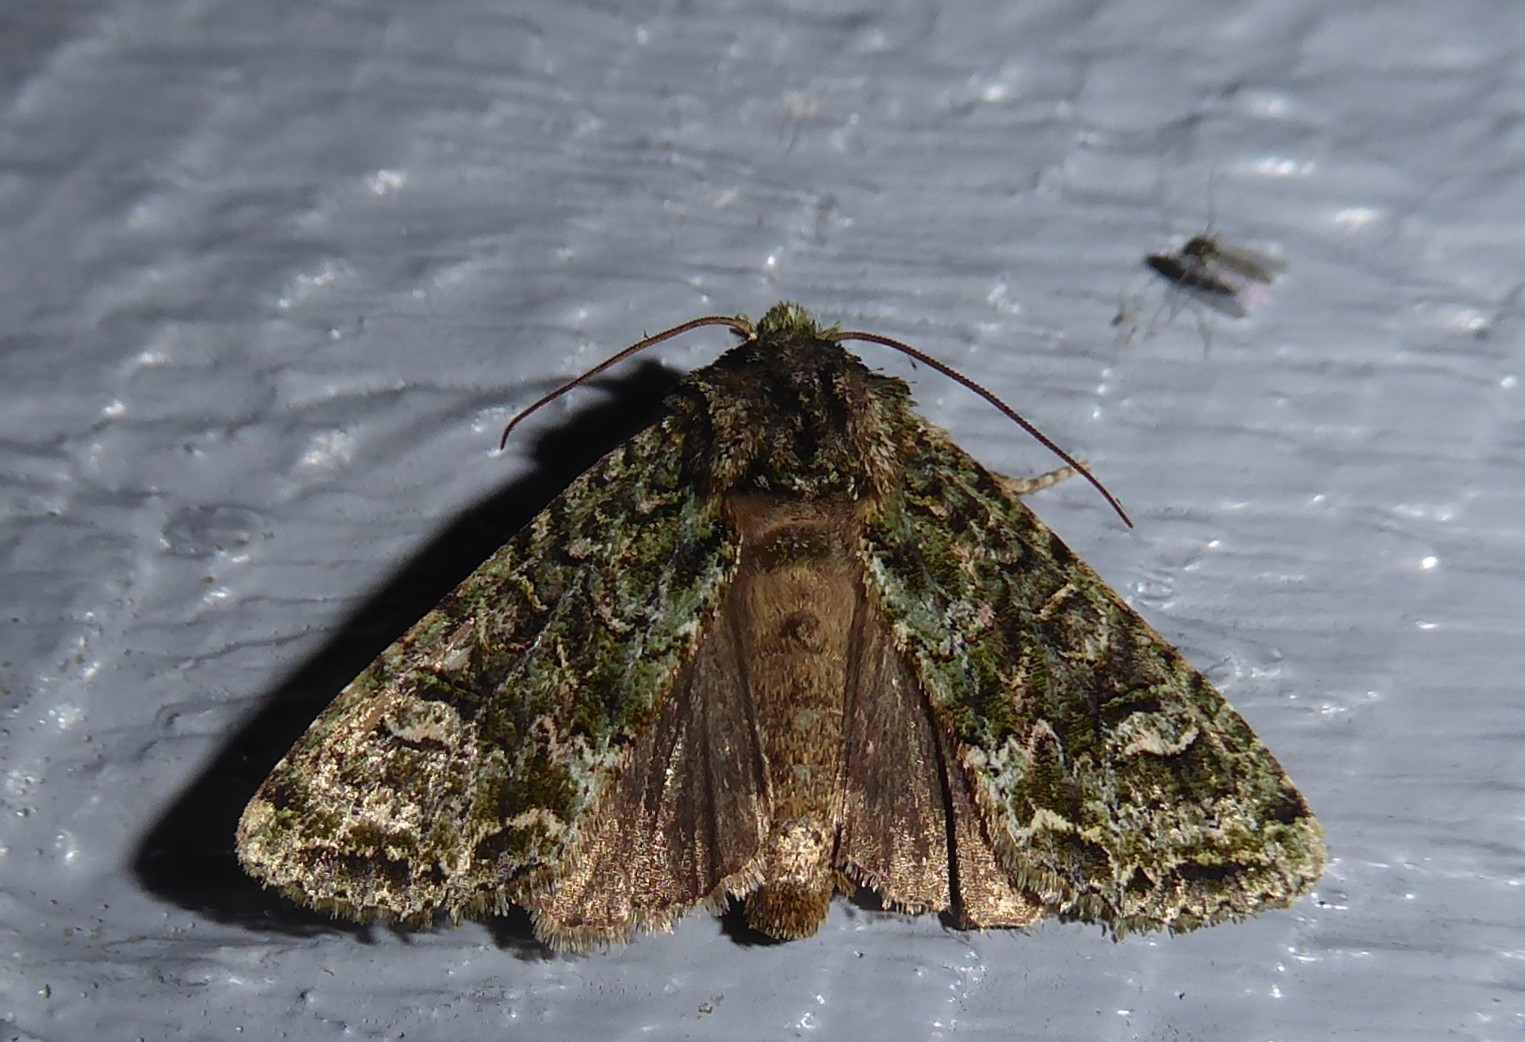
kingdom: Animalia
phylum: Arthropoda
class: Insecta
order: Lepidoptera
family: Noctuidae
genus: Ichneutica
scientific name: Ichneutica
